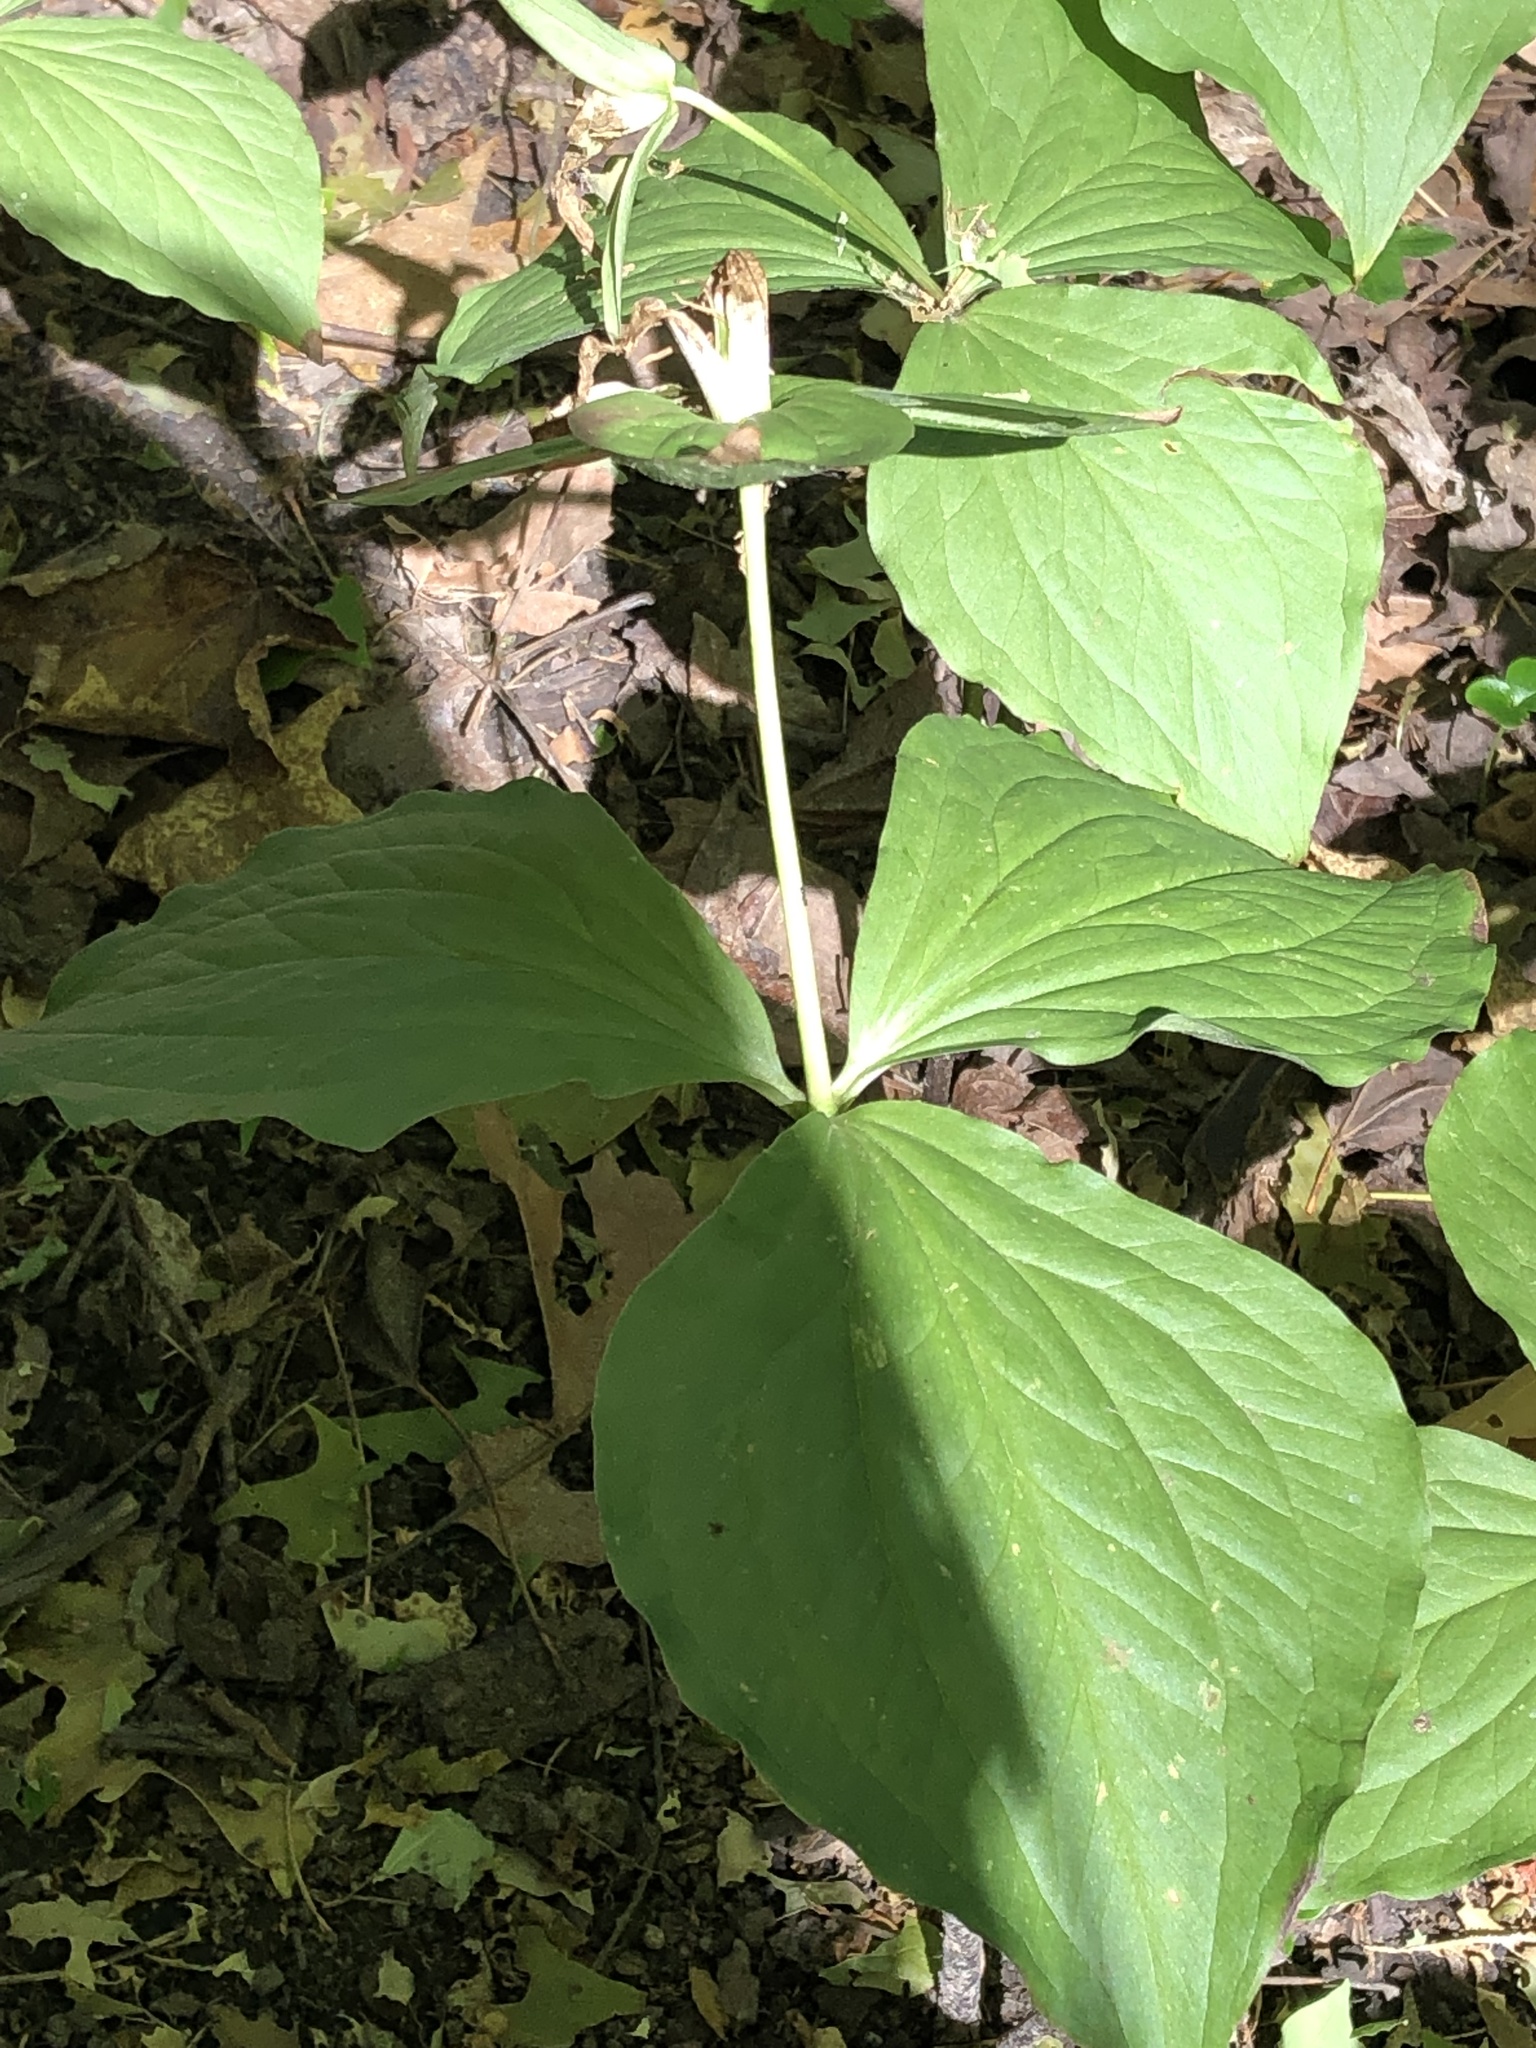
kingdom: Plantae
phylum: Tracheophyta
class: Liliopsida
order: Liliales
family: Melanthiaceae
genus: Trillium
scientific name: Trillium grandiflorum
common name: Great white trillium
